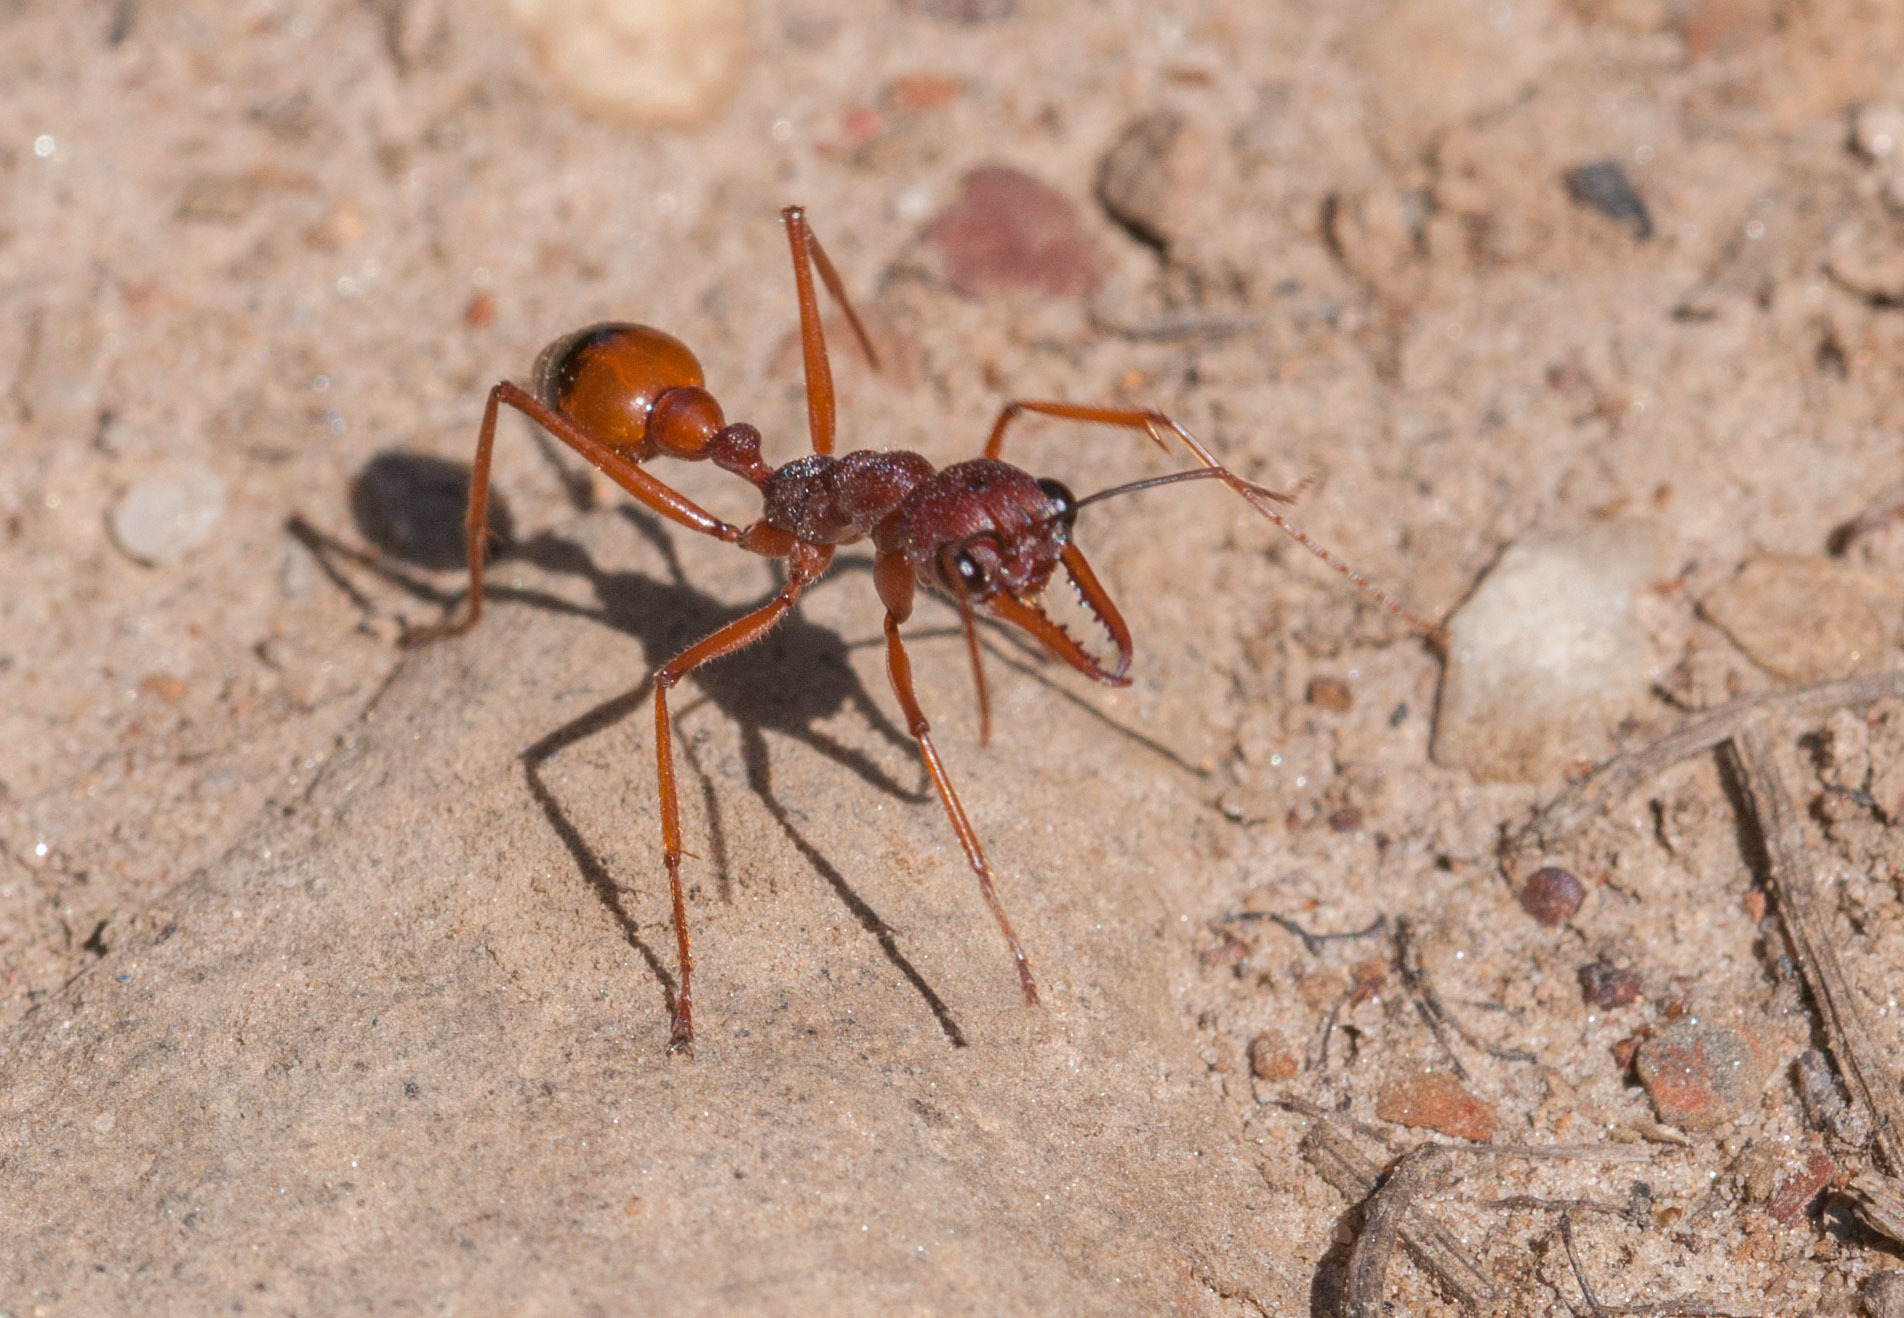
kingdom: Animalia
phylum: Arthropoda
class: Insecta
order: Hymenoptera
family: Formicidae
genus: Myrmecia
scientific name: Myrmecia nigriscapa
